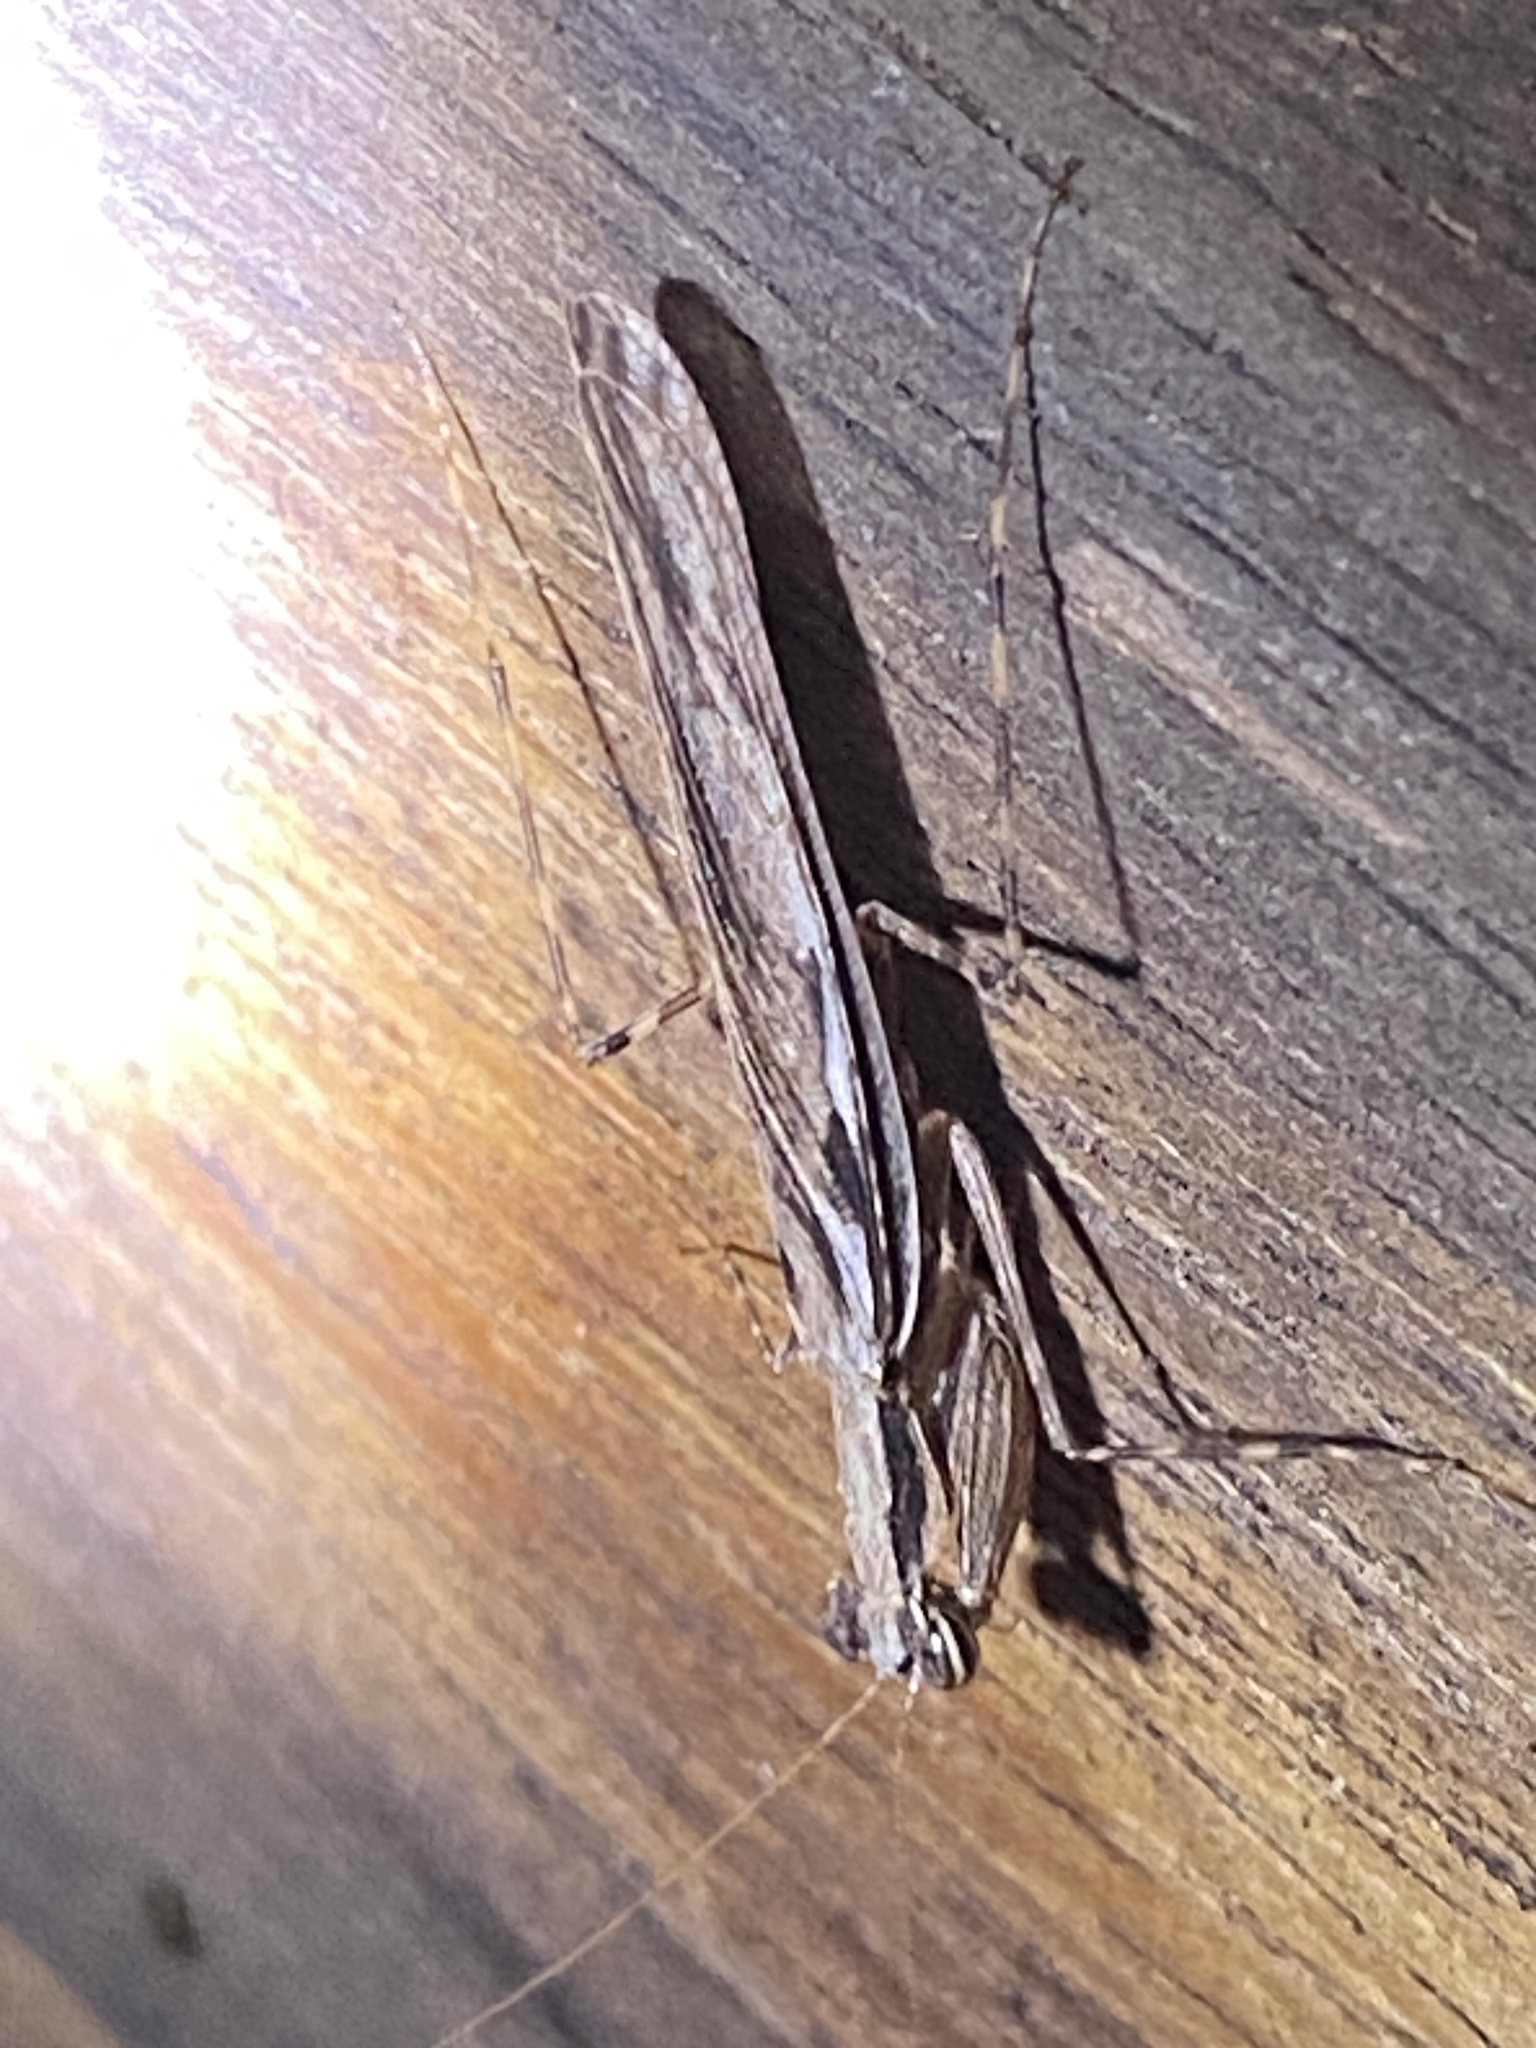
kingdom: Animalia
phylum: Arthropoda
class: Insecta
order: Mantodea
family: Nanomantidae
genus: Gyromantis
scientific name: Gyromantis occidentalis
